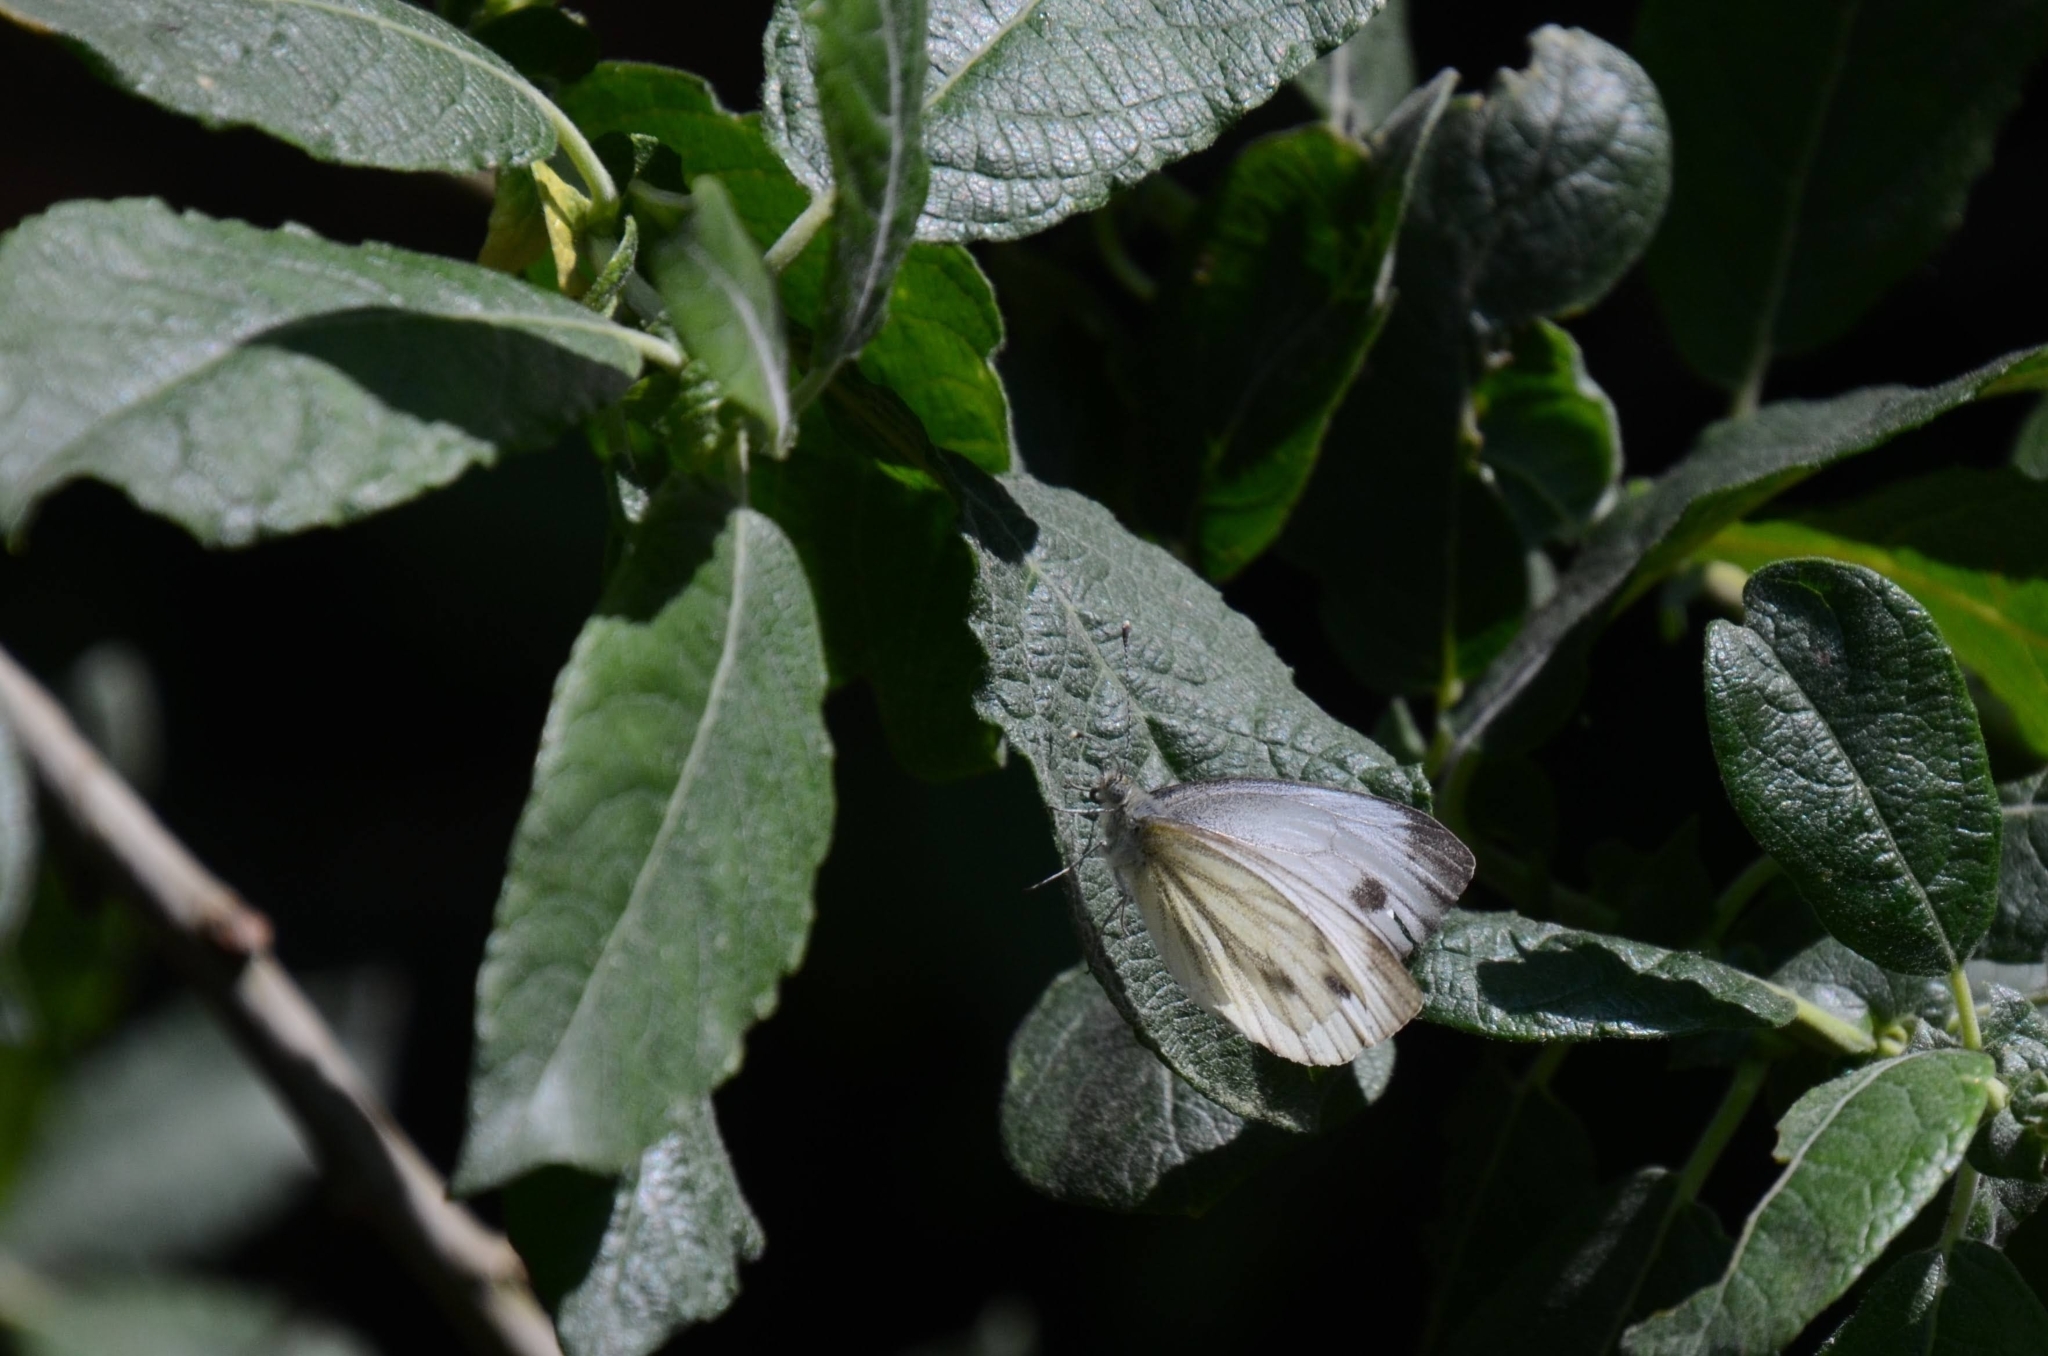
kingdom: Animalia
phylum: Arthropoda
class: Insecta
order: Lepidoptera
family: Pieridae
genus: Pieris
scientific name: Pieris napi
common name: Green-veined white
